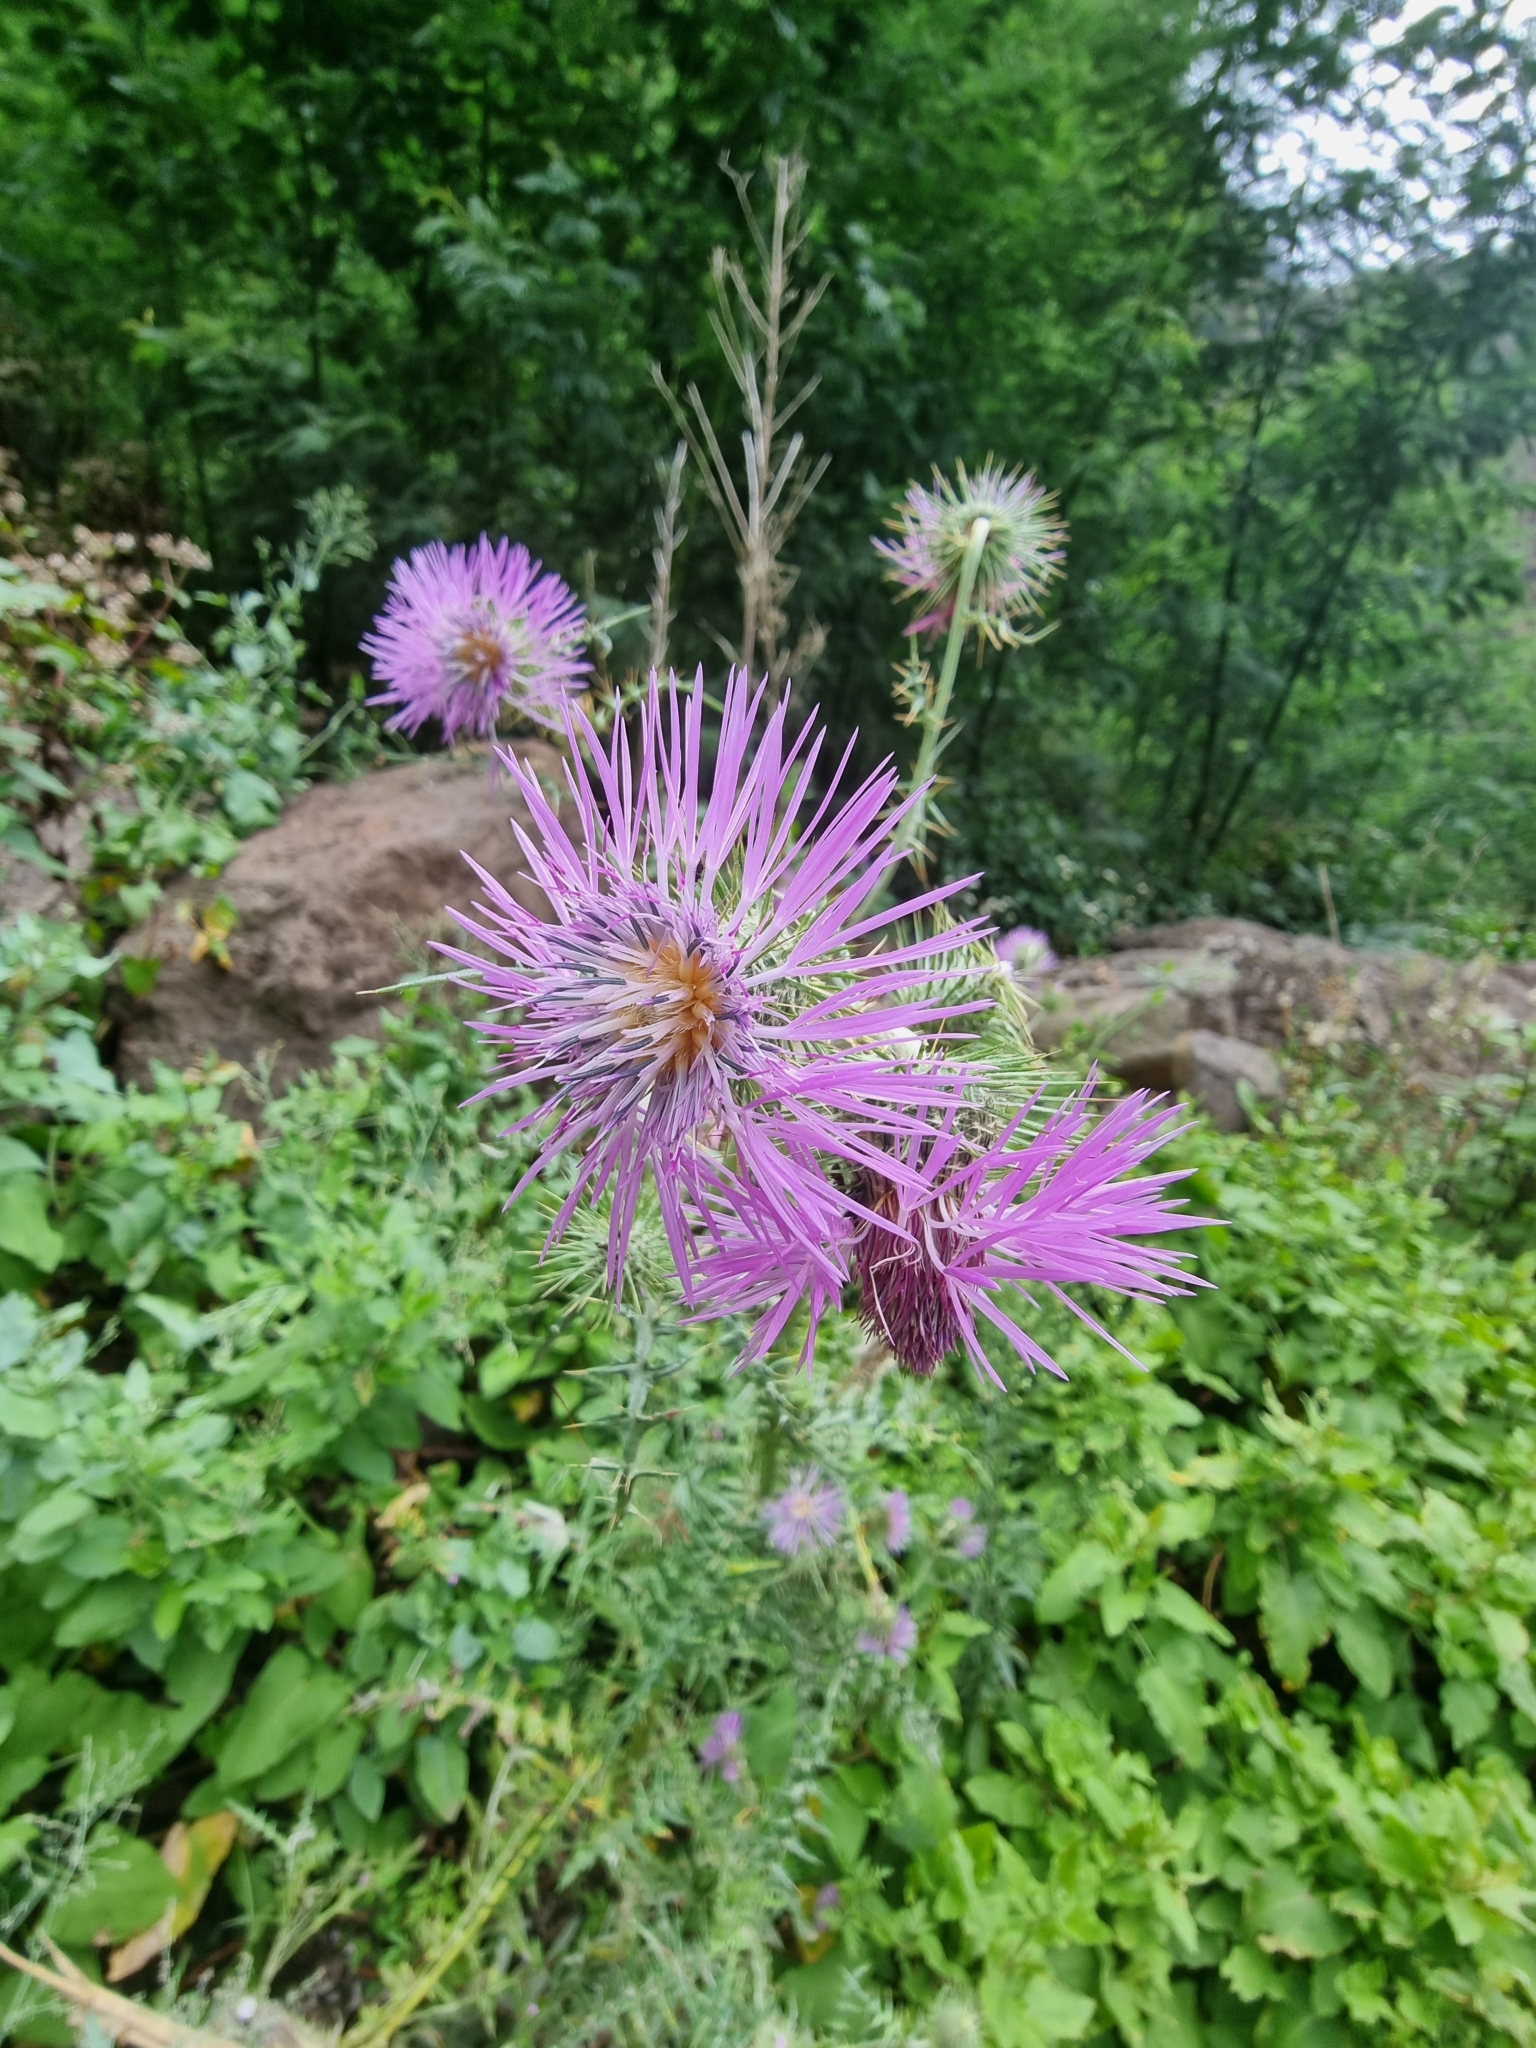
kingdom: Plantae
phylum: Tracheophyta
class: Magnoliopsida
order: Asterales
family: Asteraceae
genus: Galactites
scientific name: Galactites tomentosa
